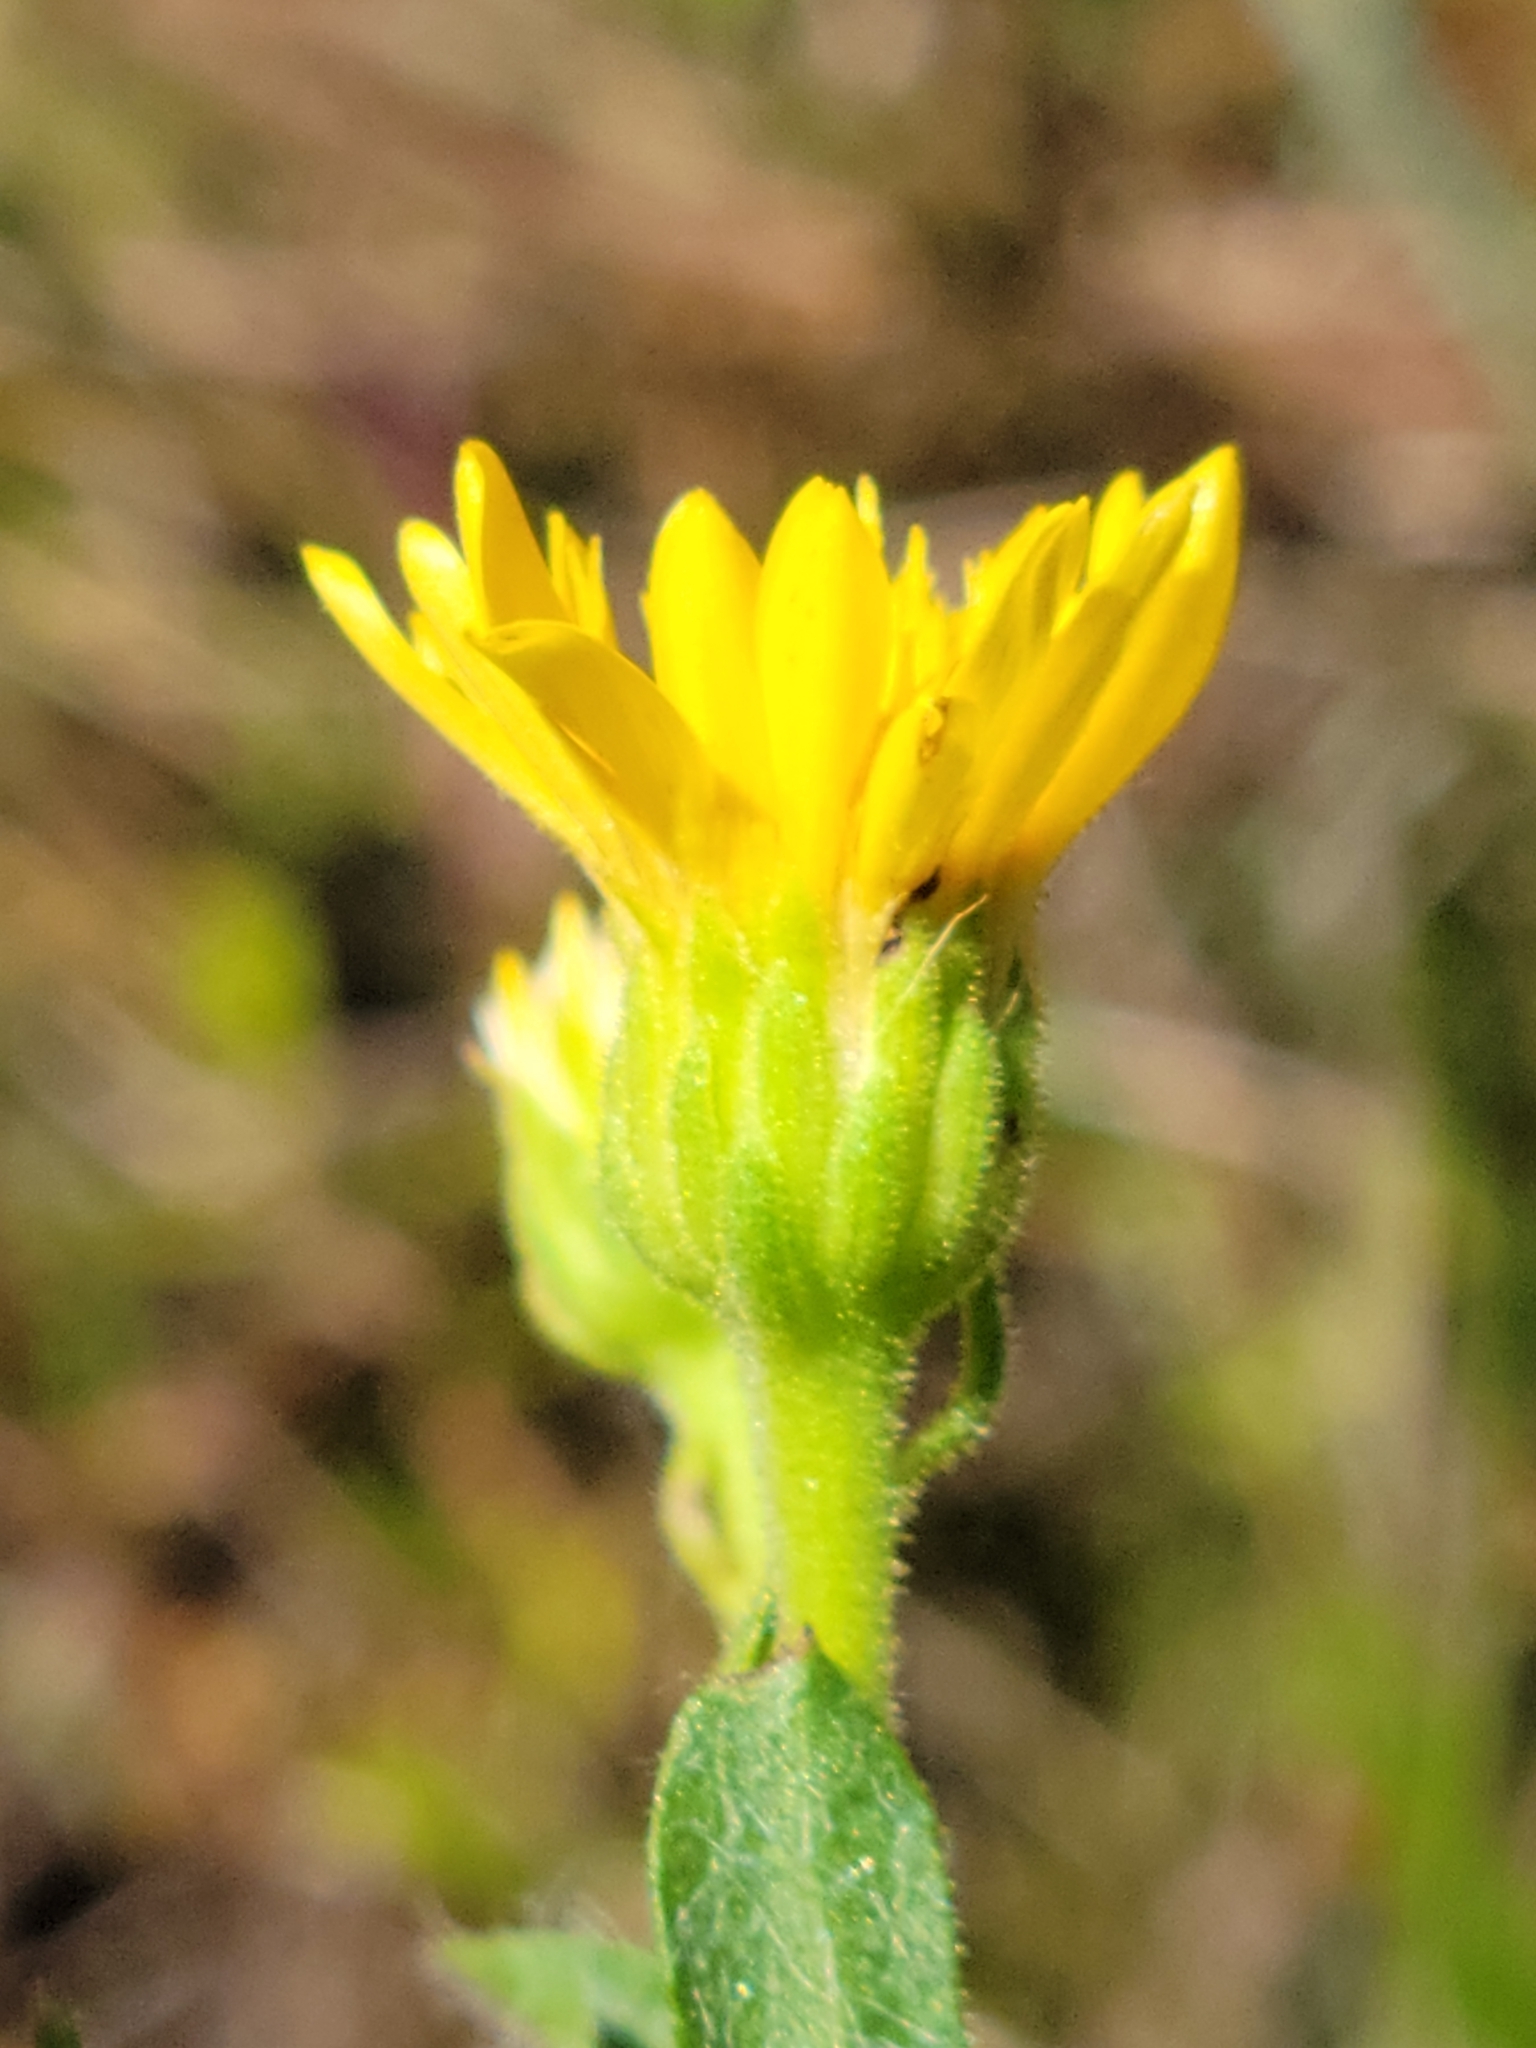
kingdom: Plantae
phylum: Tracheophyta
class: Magnoliopsida
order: Asterales
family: Asteraceae
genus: Chrysopsis
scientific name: Chrysopsis mariana
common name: Maryland golden-aster
